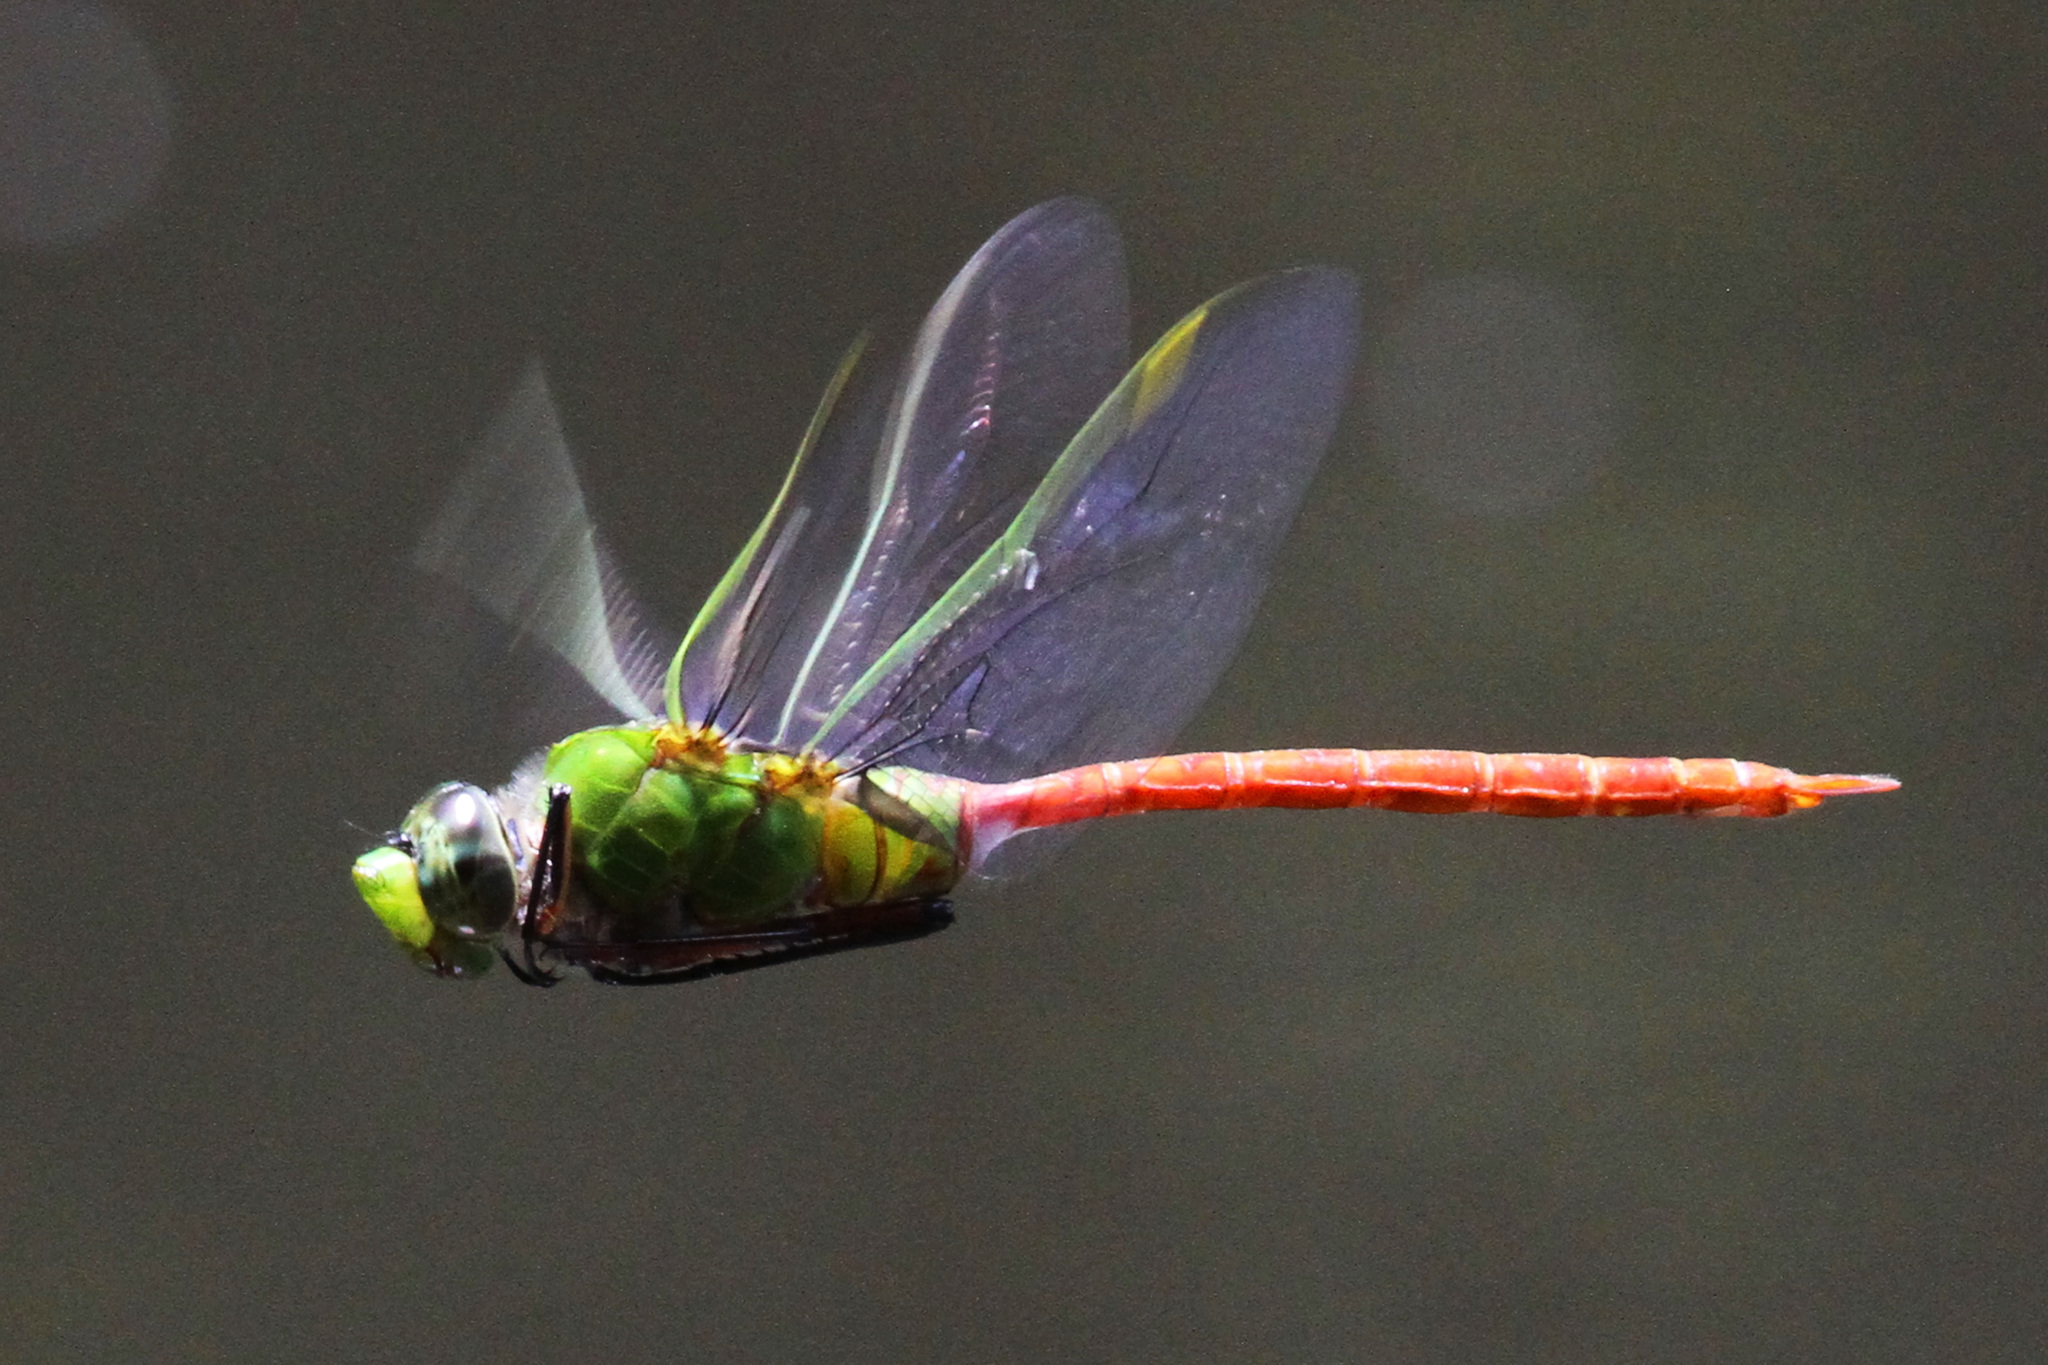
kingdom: Animalia
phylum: Arthropoda
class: Insecta
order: Odonata
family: Aeshnidae
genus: Anax
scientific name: Anax longipes
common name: Comet darner
